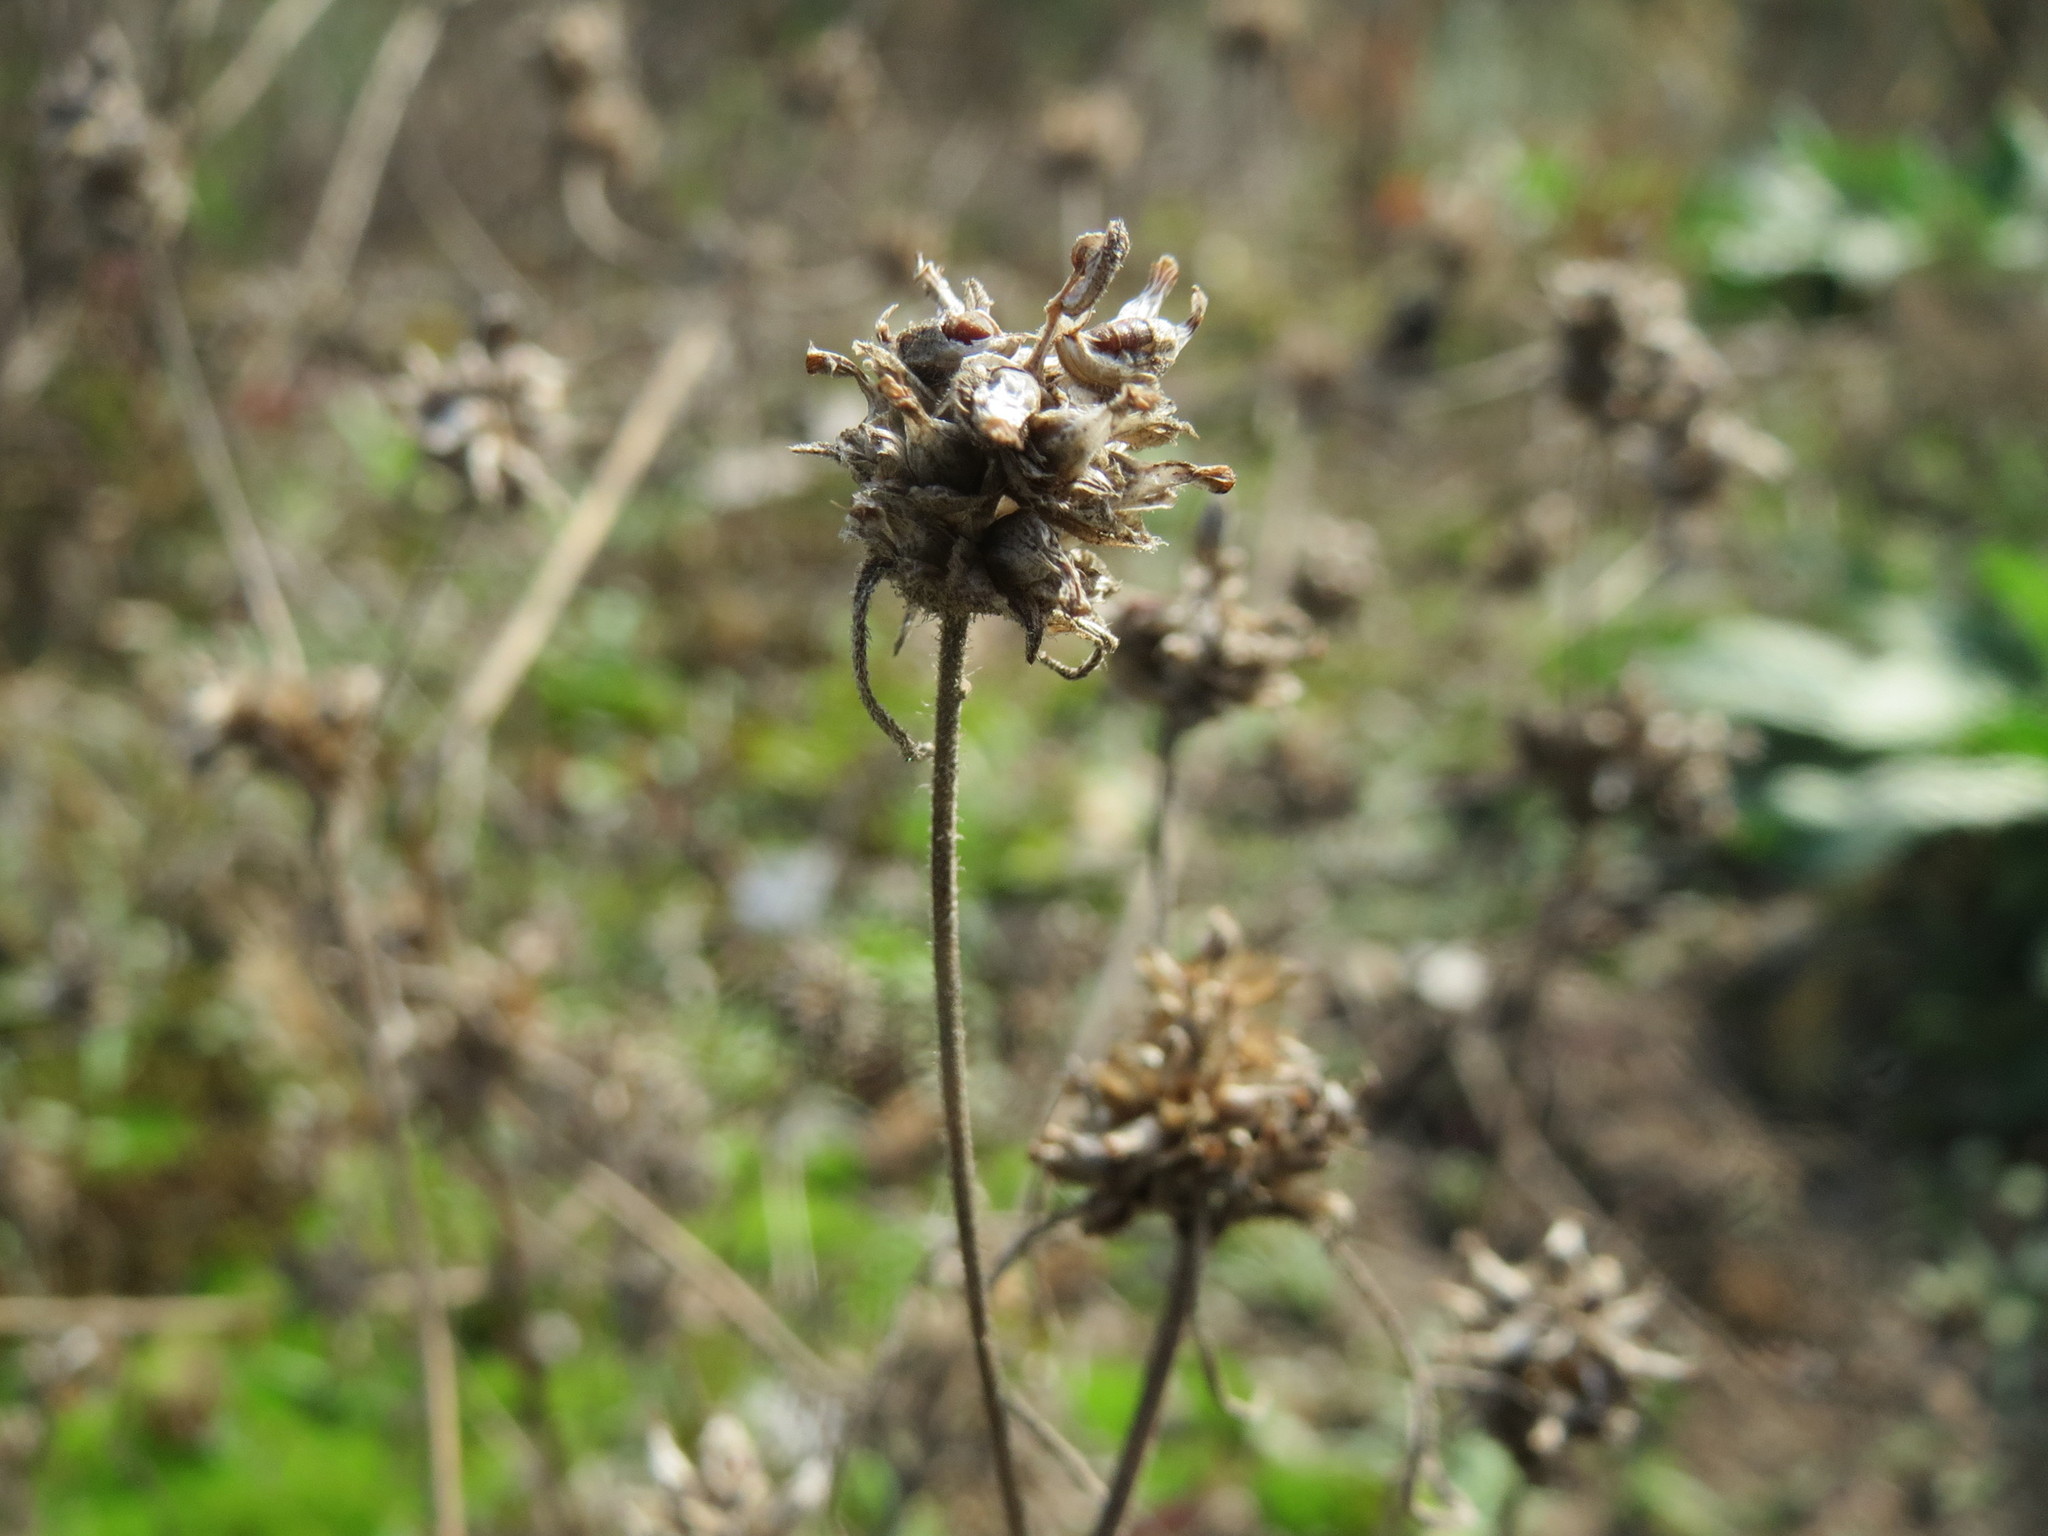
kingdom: Plantae
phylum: Tracheophyta
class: Magnoliopsida
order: Lamiales
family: Plantaginaceae
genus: Plantago
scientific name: Plantago arenaria
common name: Branched plantain
